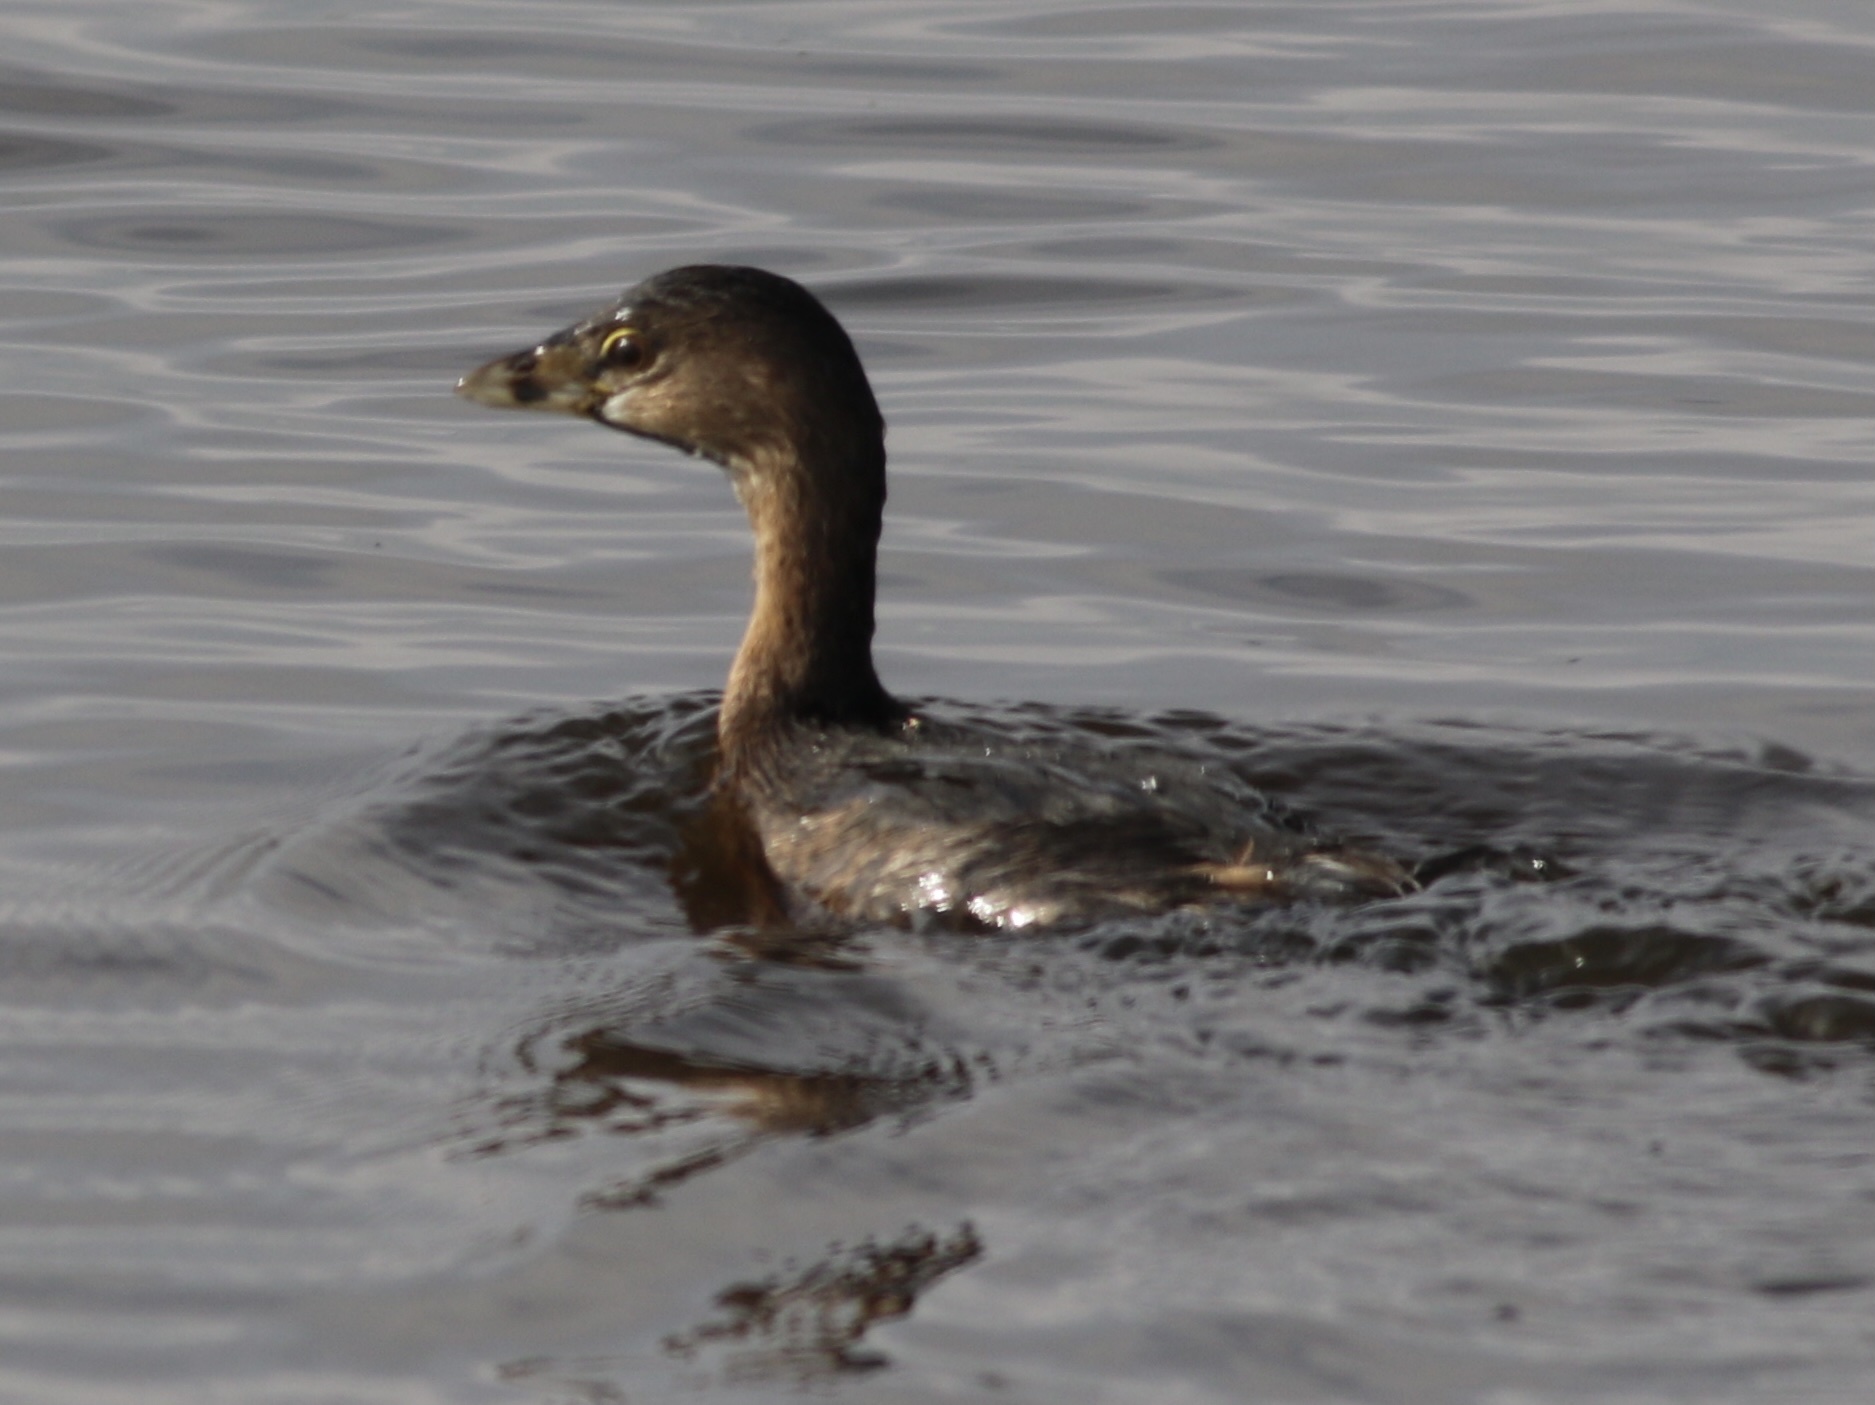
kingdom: Animalia
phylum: Chordata
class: Aves
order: Podicipediformes
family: Podicipedidae
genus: Podilymbus
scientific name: Podilymbus podiceps
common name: Pied-billed grebe
